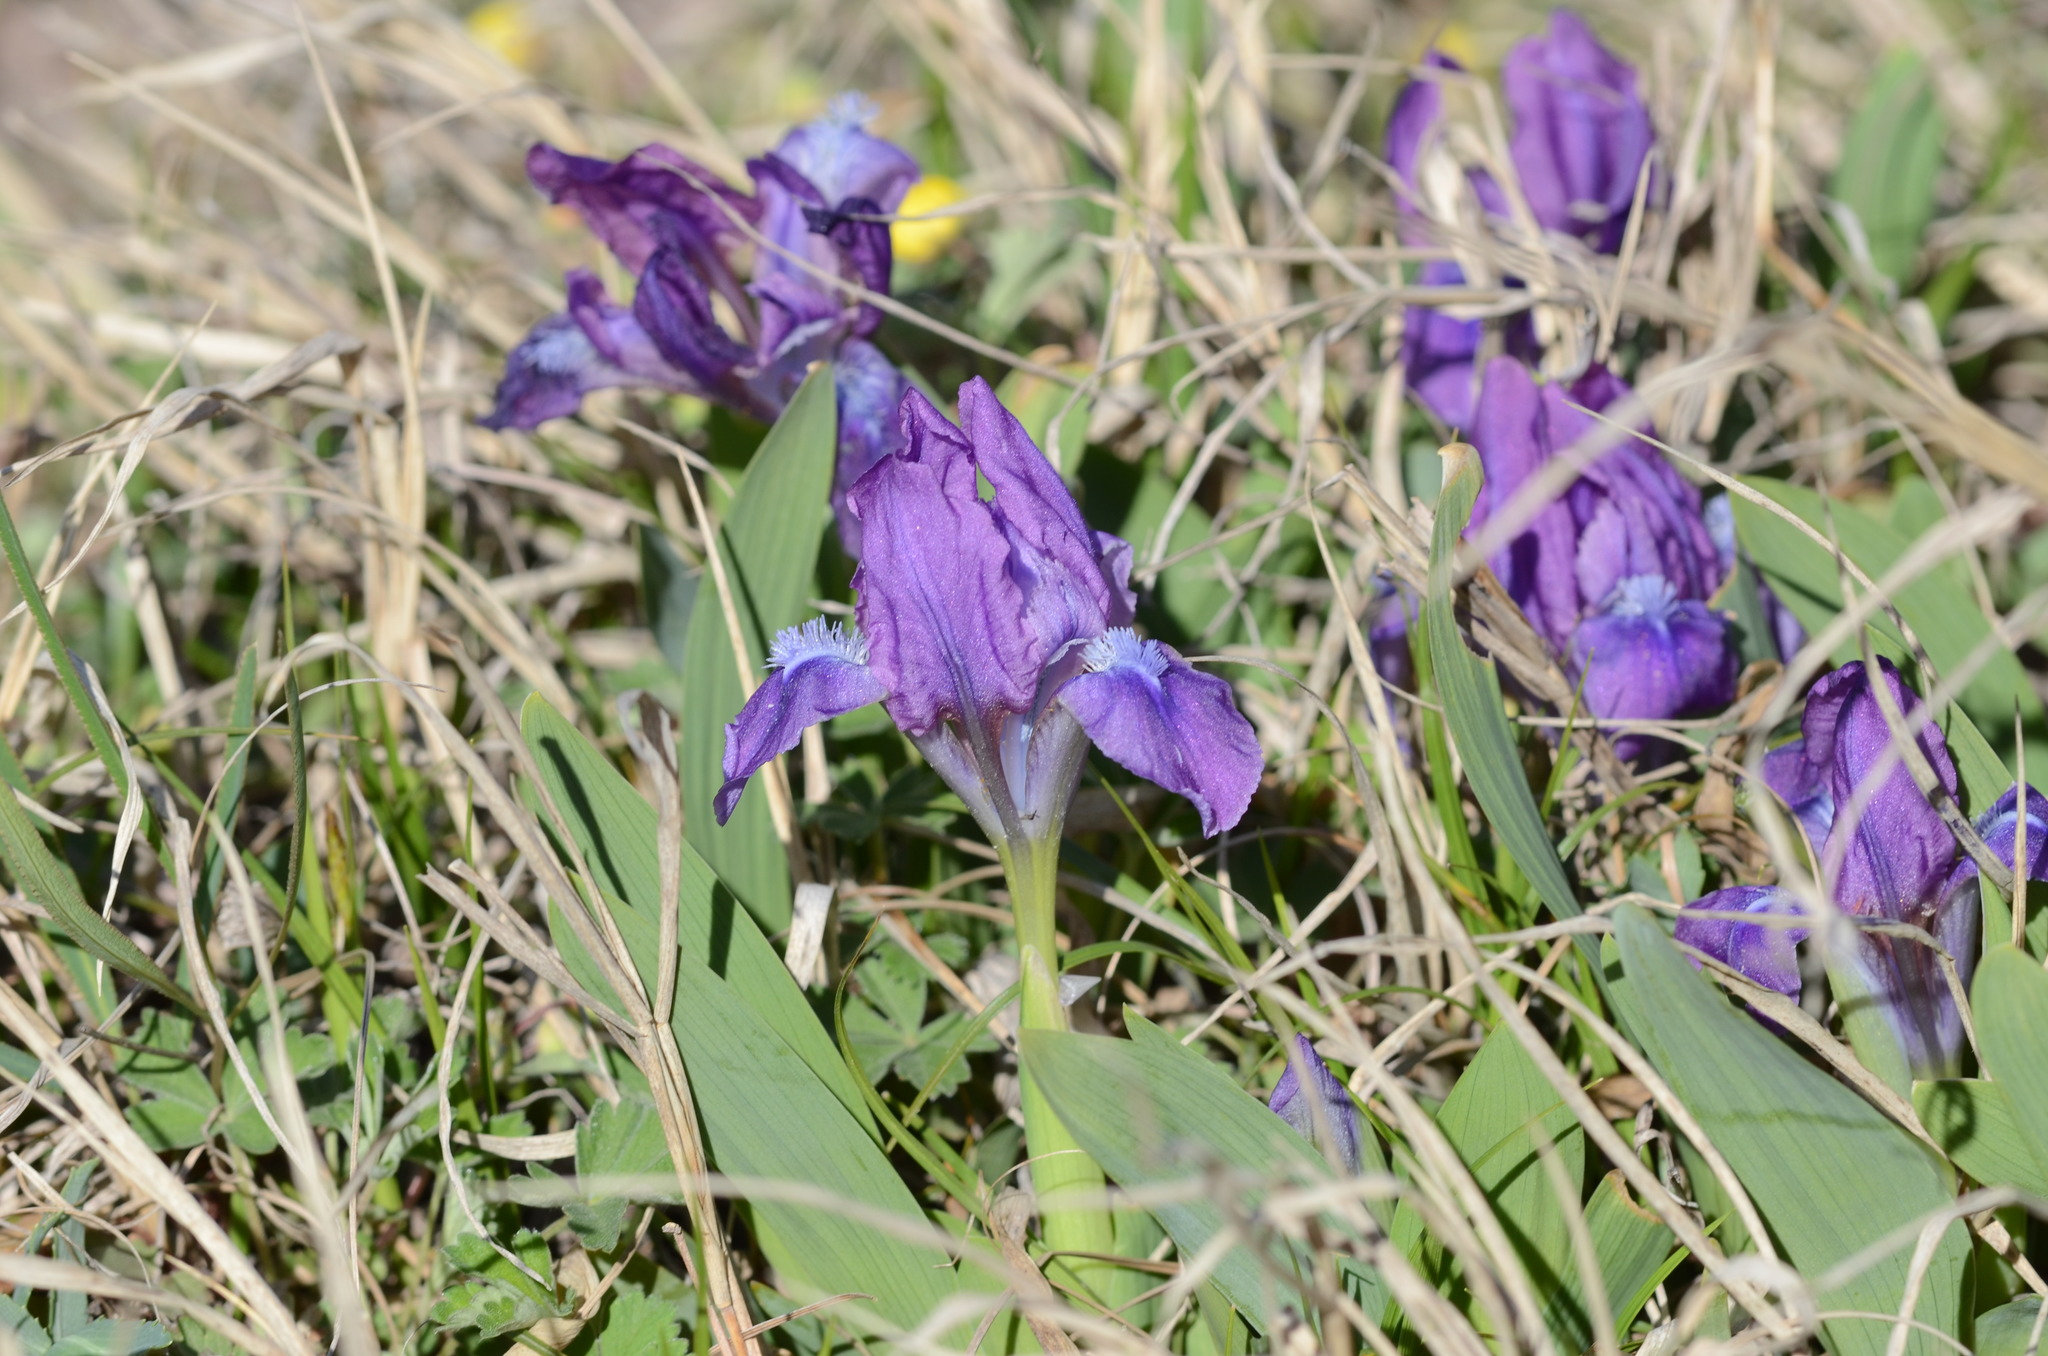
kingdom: Plantae
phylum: Tracheophyta
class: Liliopsida
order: Asparagales
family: Iridaceae
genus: Iris
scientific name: Iris pumila
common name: Dwarf iris
